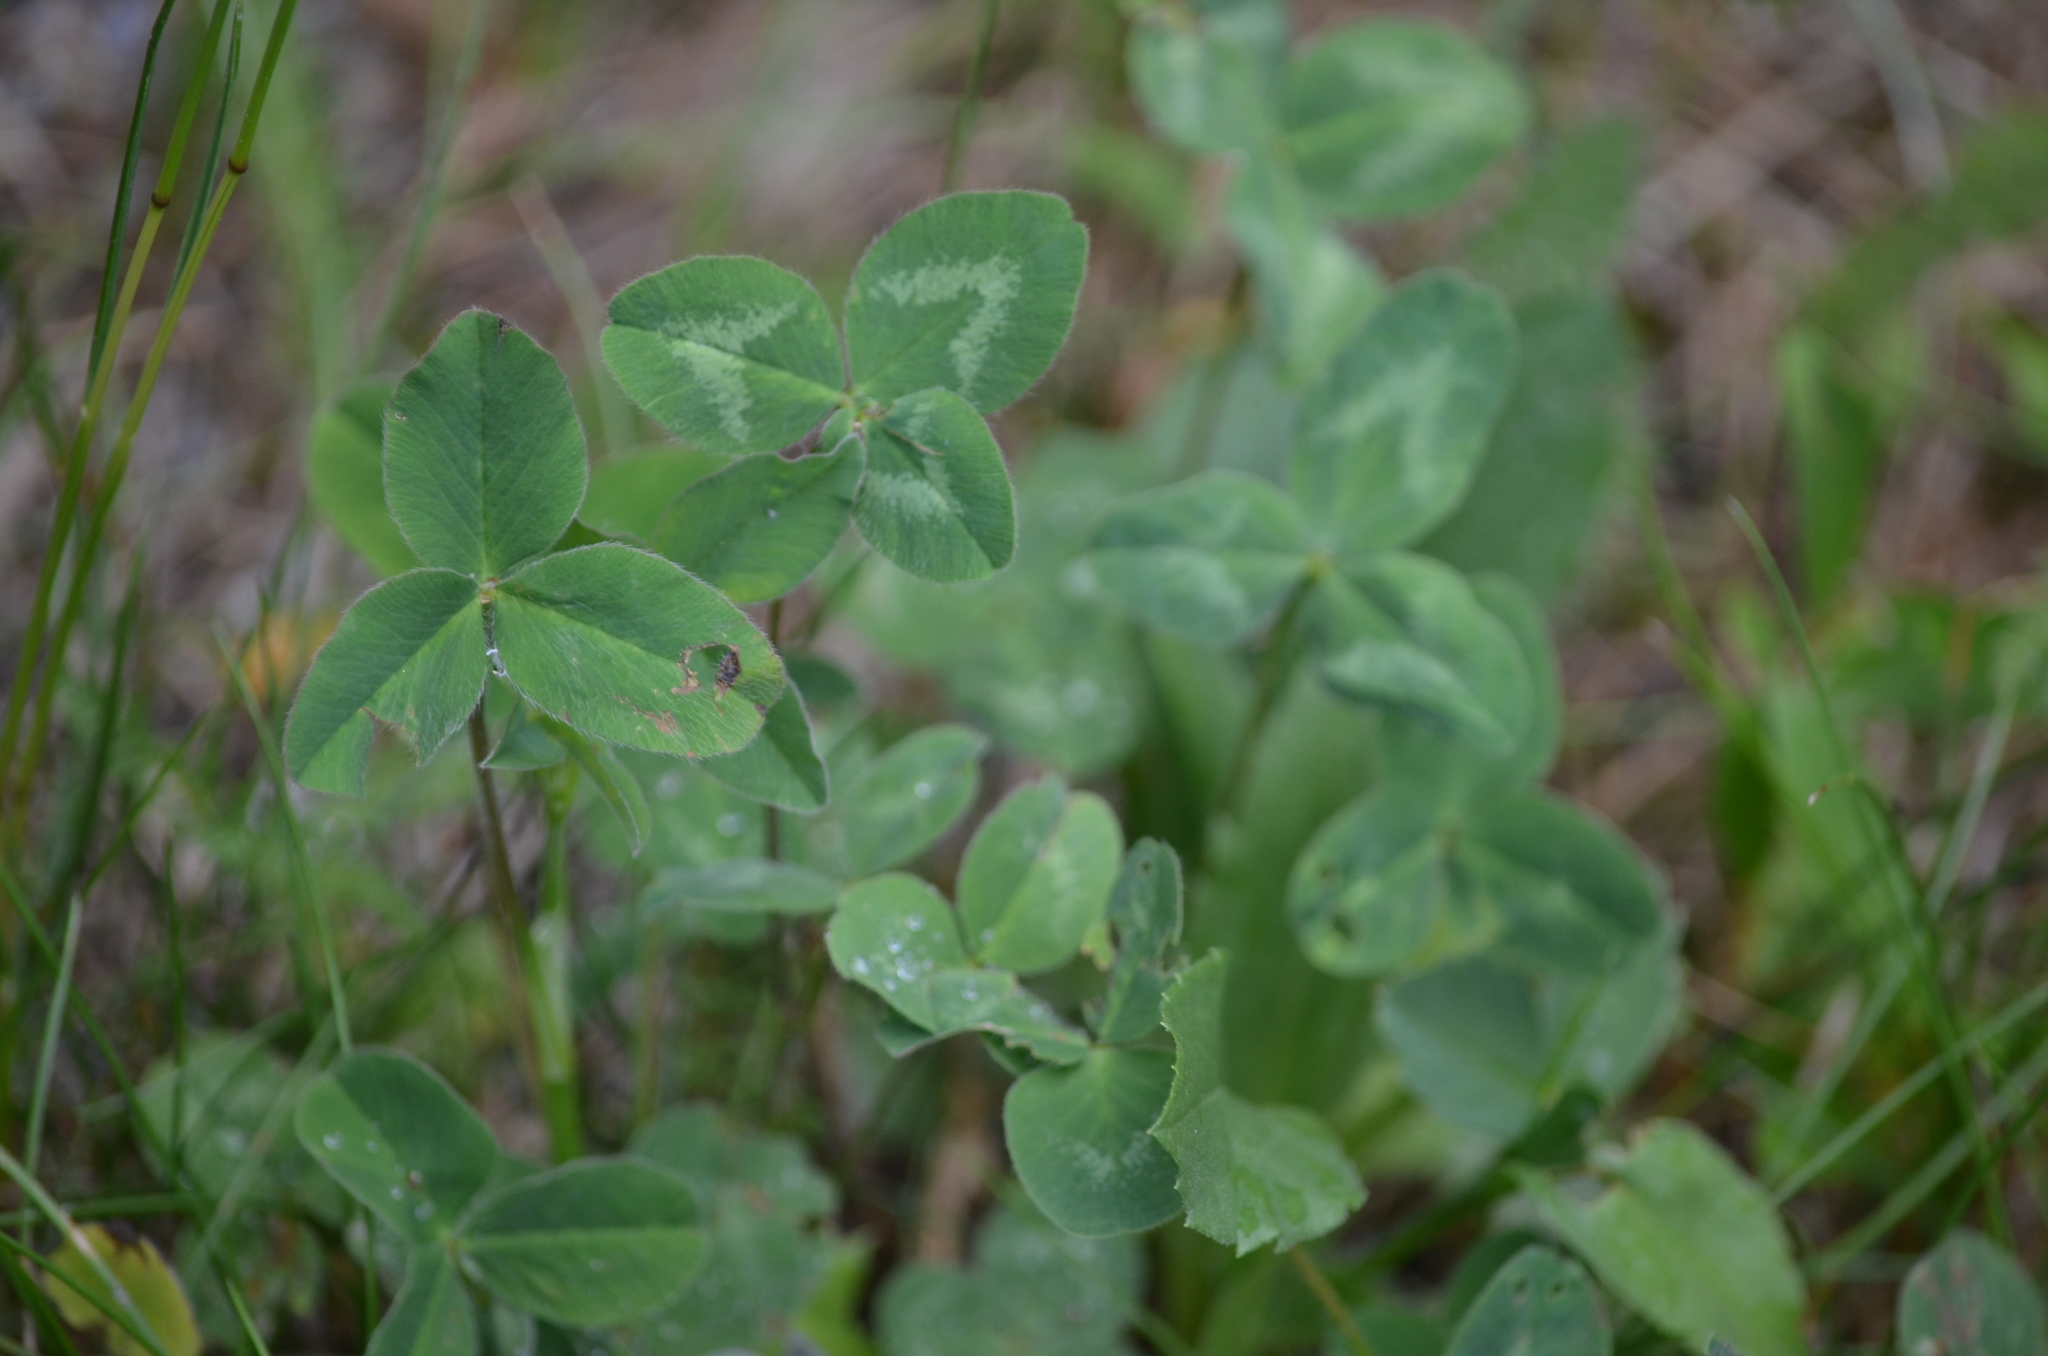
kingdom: Plantae
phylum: Tracheophyta
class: Magnoliopsida
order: Fabales
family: Fabaceae
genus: Trifolium
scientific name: Trifolium pratense
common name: Red clover
